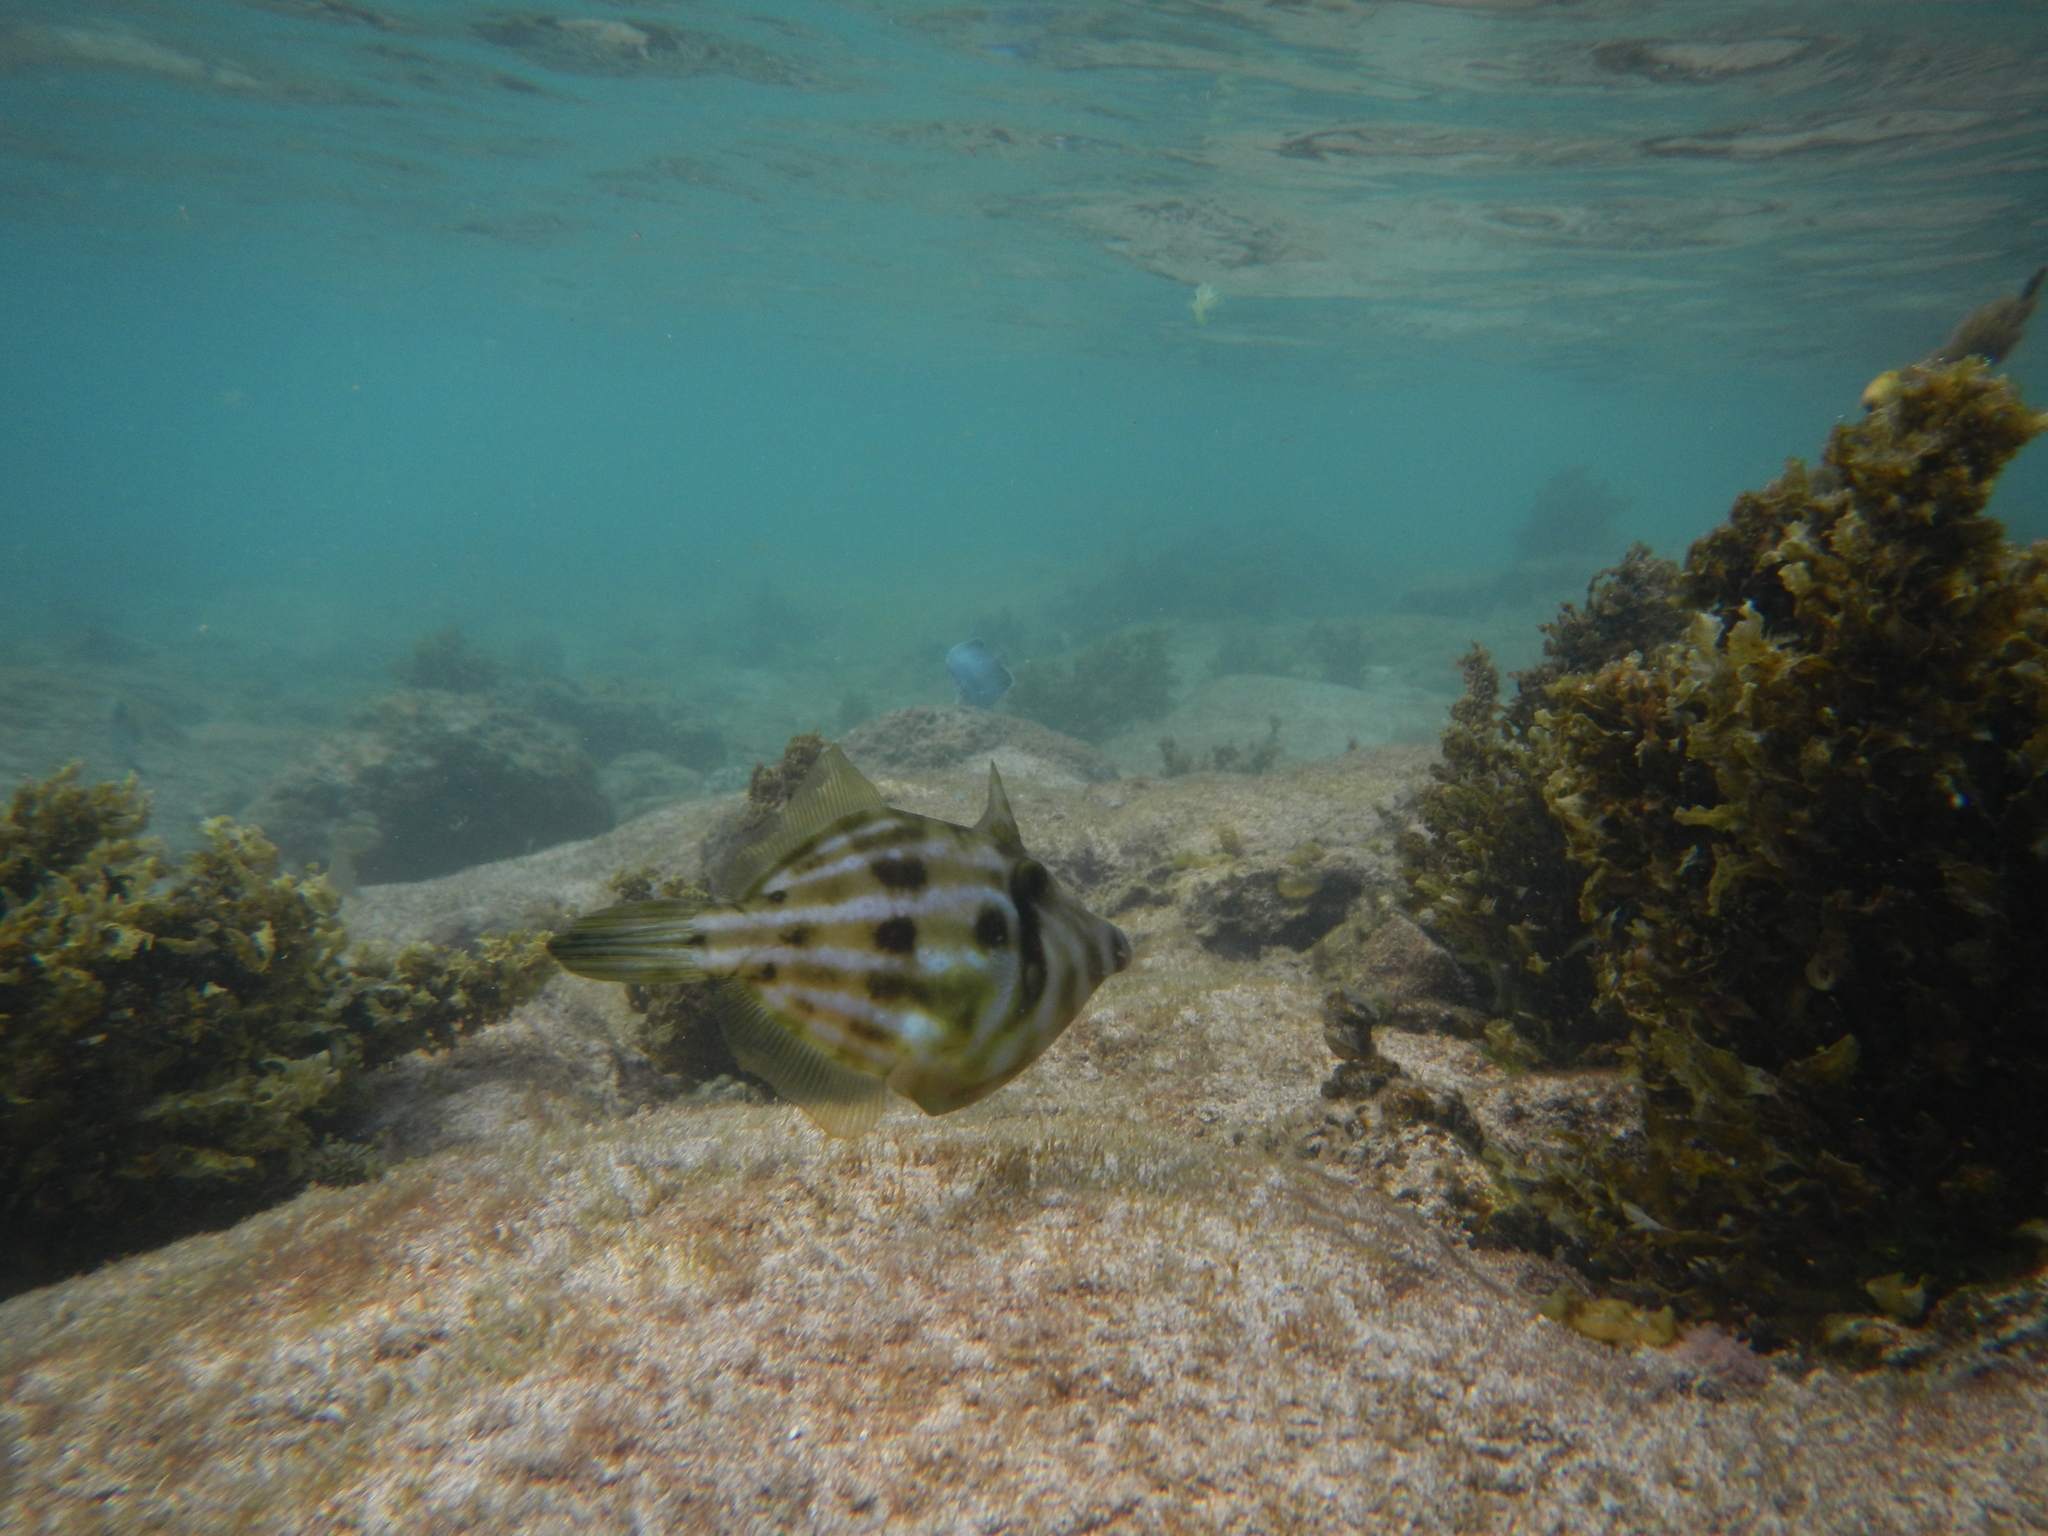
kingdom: Animalia
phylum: Chordata
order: Tetraodontiformes
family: Monacanthidae
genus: Cantherhines
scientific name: Cantherhines rapanui
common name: Rapanui filefish
